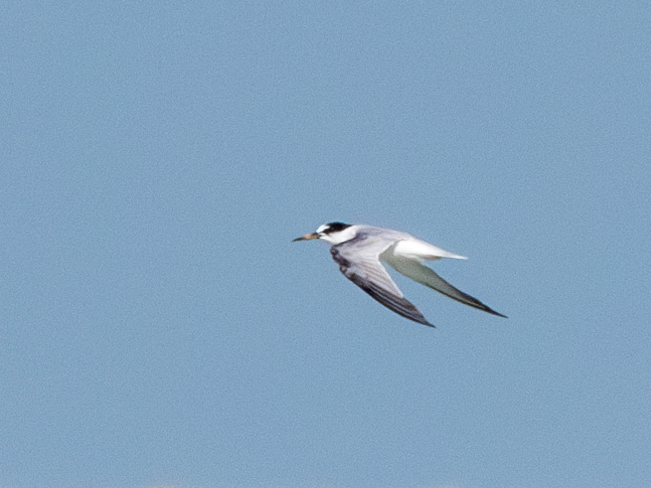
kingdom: Animalia
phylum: Chordata
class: Aves
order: Charadriiformes
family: Laridae
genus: Sternula
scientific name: Sternula albifrons
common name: Little tern
